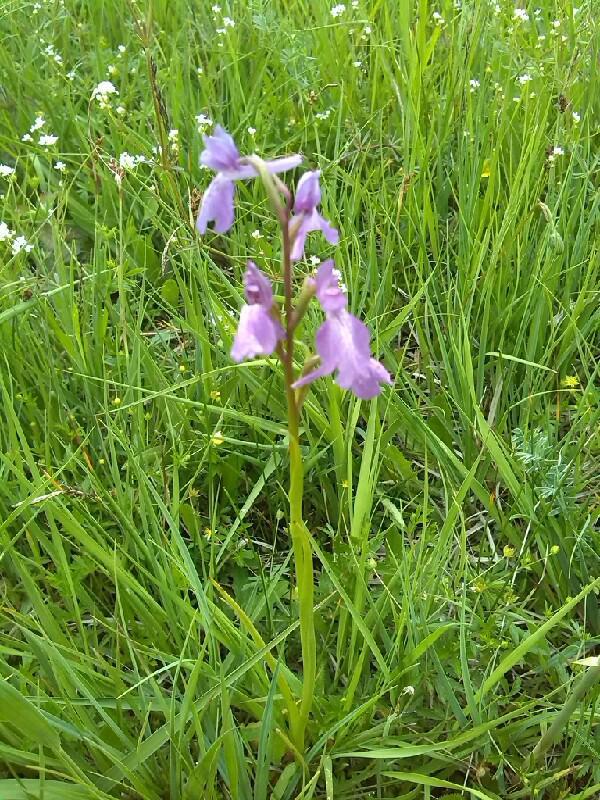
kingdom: Plantae
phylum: Tracheophyta
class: Liliopsida
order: Asparagales
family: Orchidaceae
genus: Anacamptis
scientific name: Anacamptis palustris
